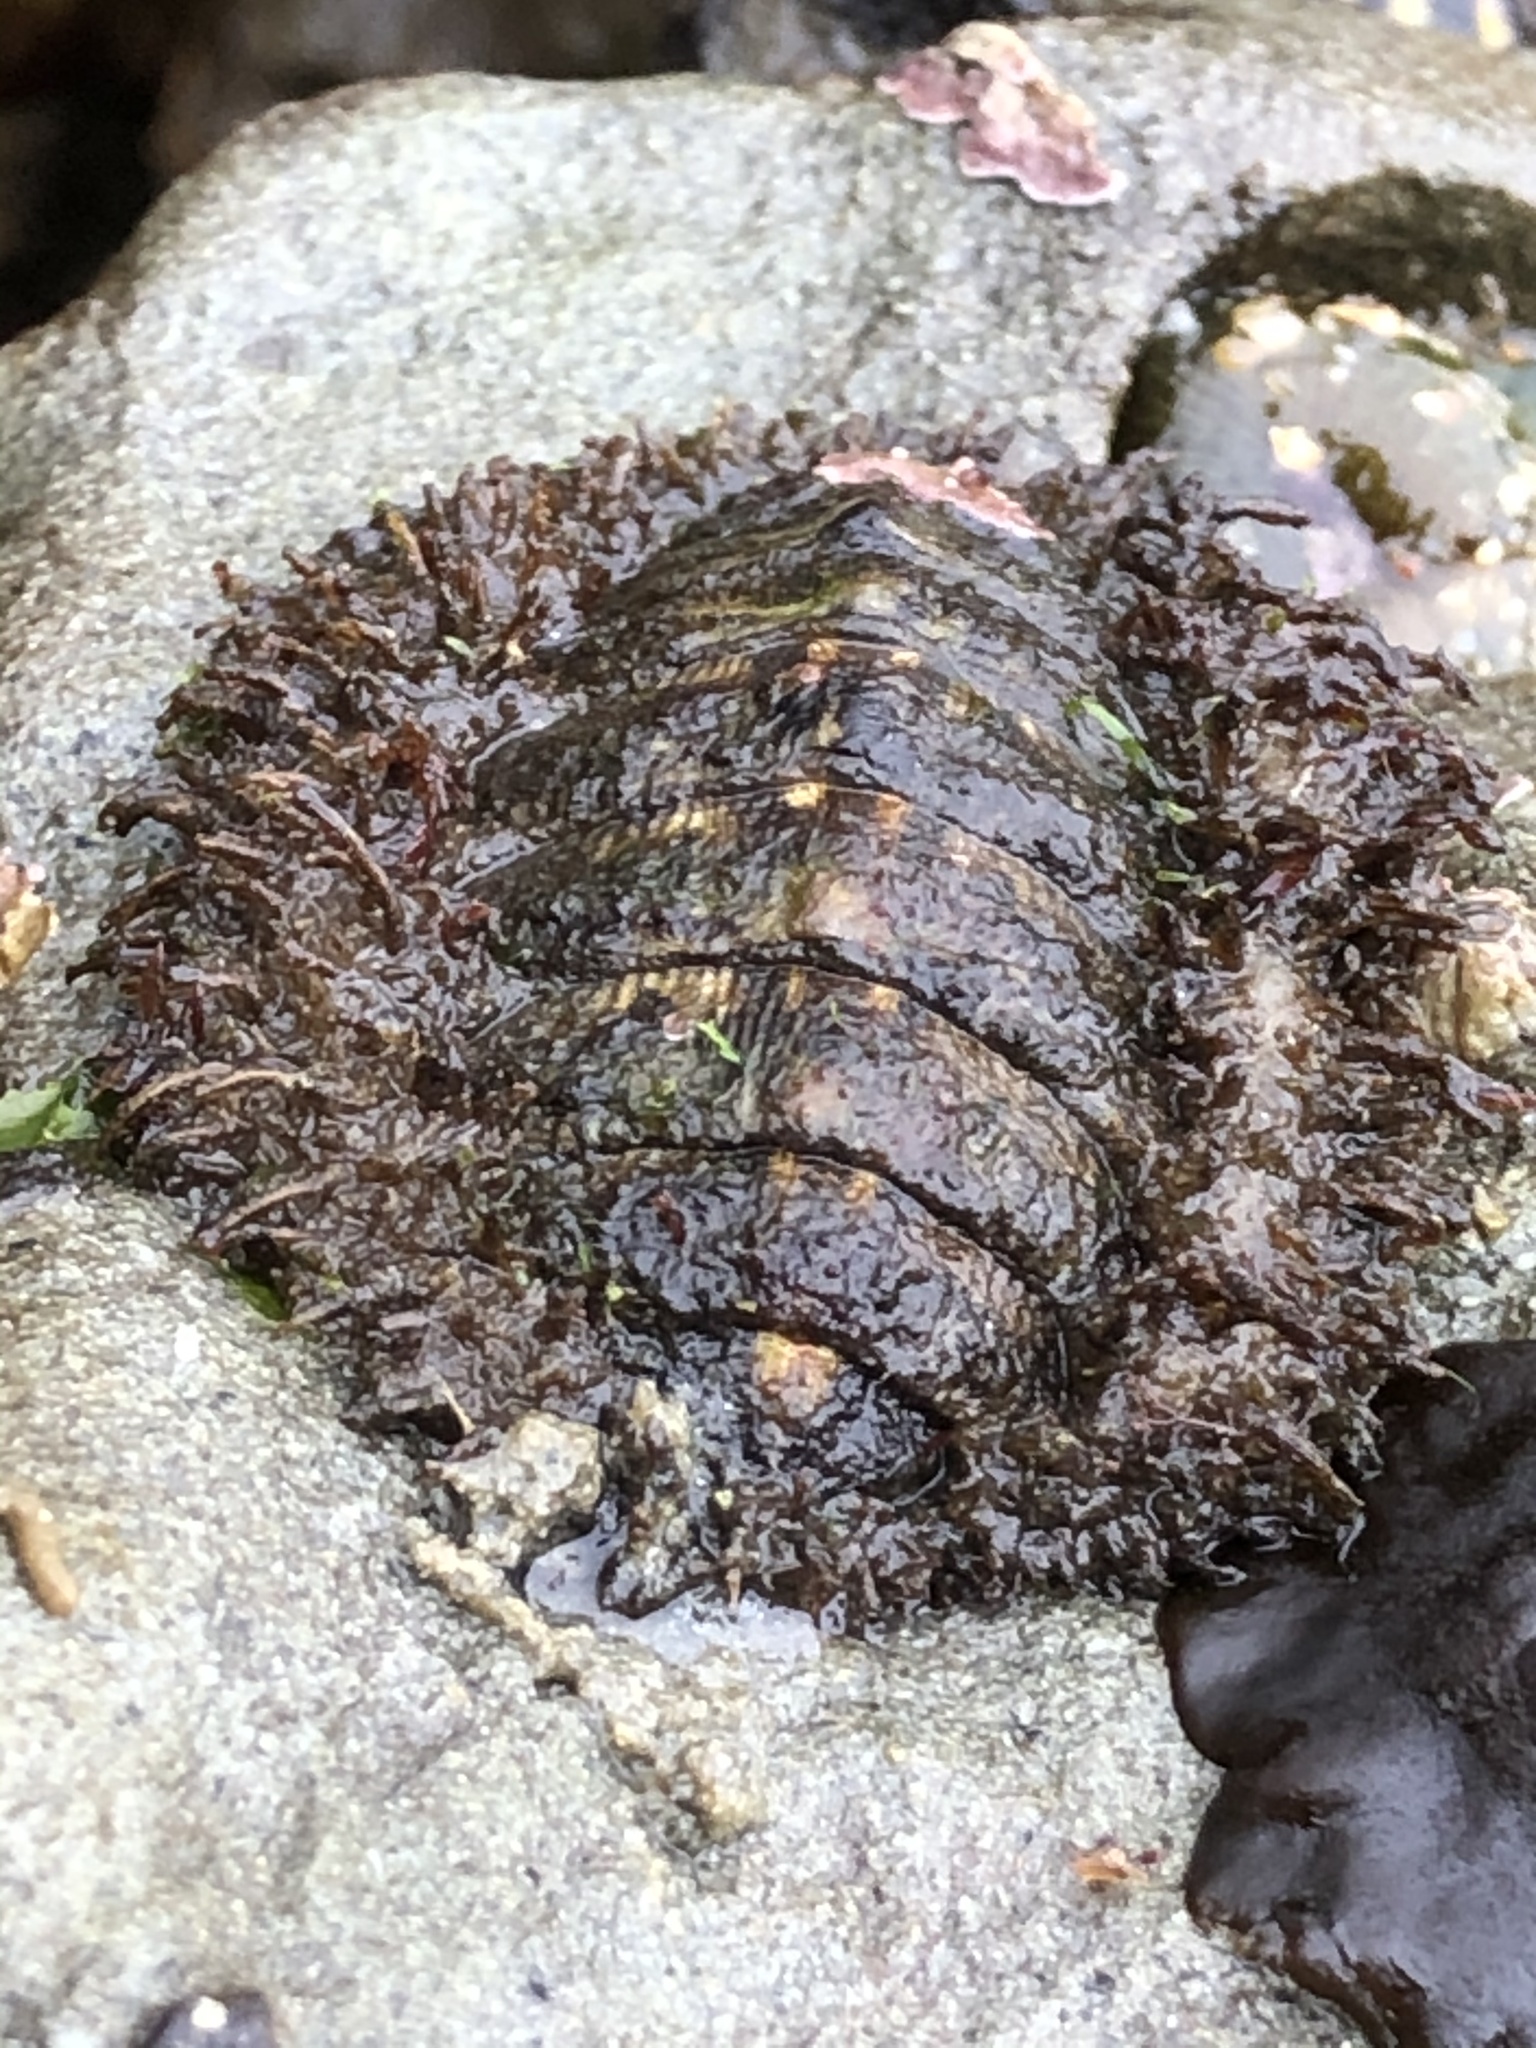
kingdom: Animalia
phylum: Mollusca
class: Polyplacophora
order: Chitonida
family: Mopaliidae
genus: Mopalia
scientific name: Mopalia muscosa
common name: Mossy chiton
